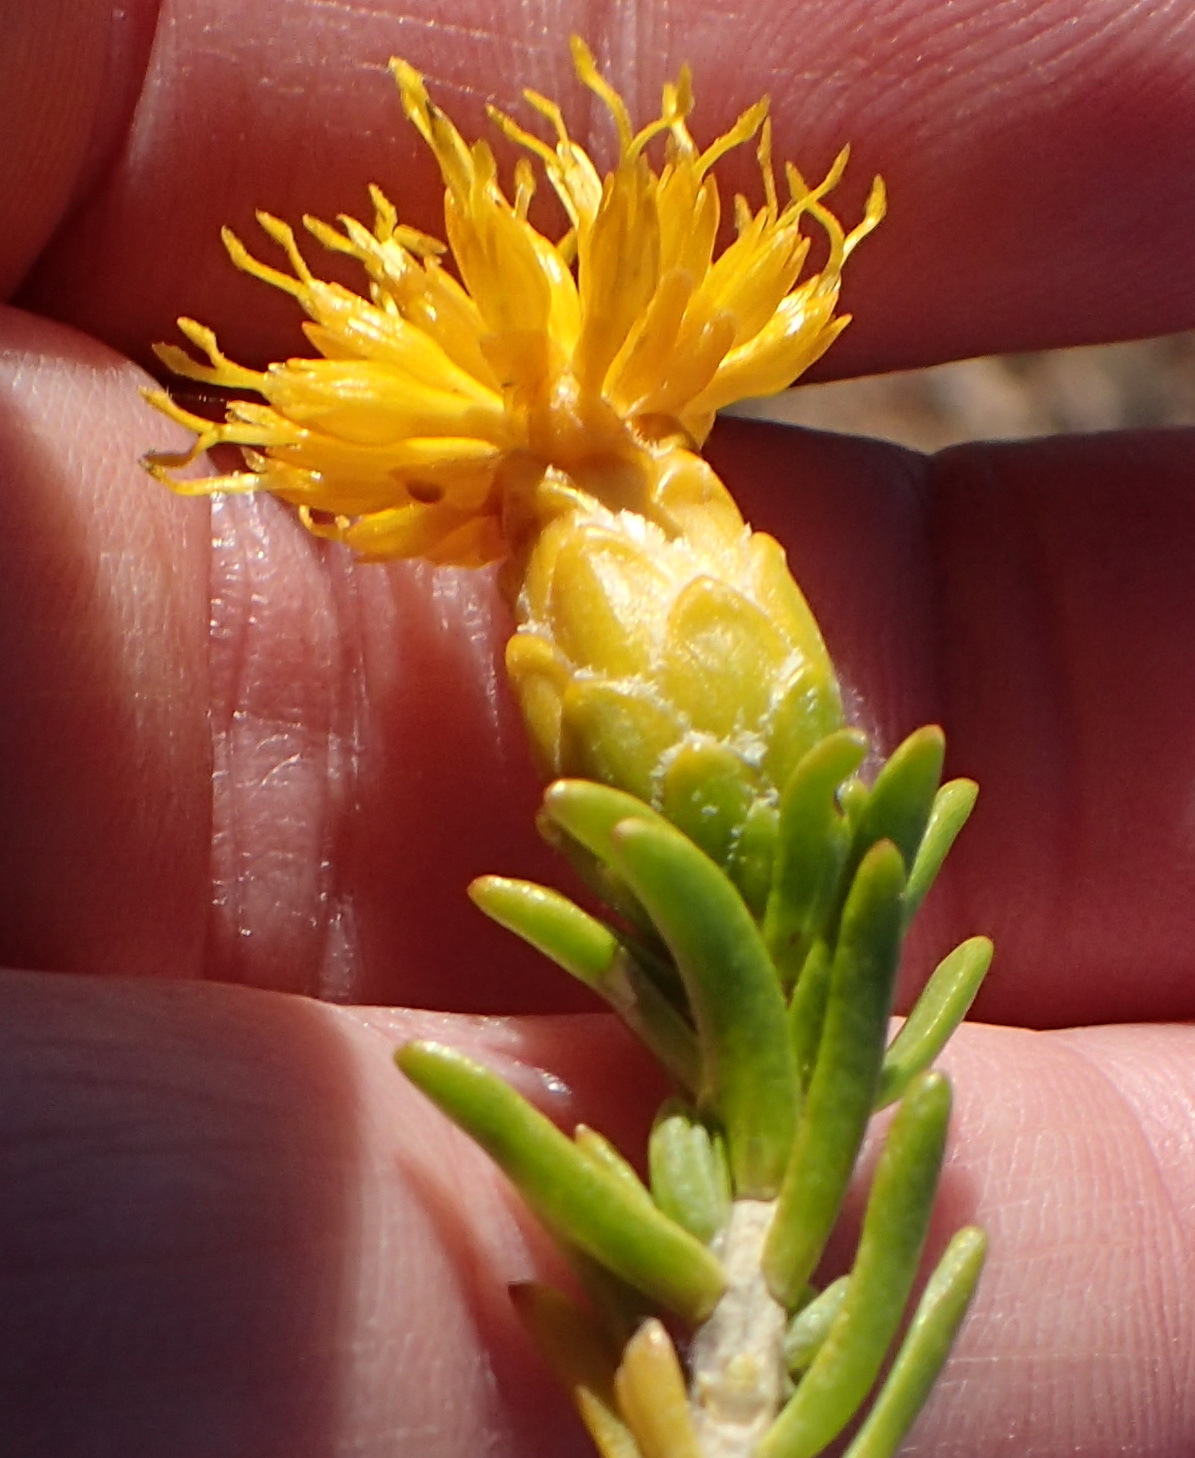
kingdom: Plantae
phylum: Tracheophyta
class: Magnoliopsida
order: Asterales
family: Asteraceae
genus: Pteronia
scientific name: Pteronia ciliata
